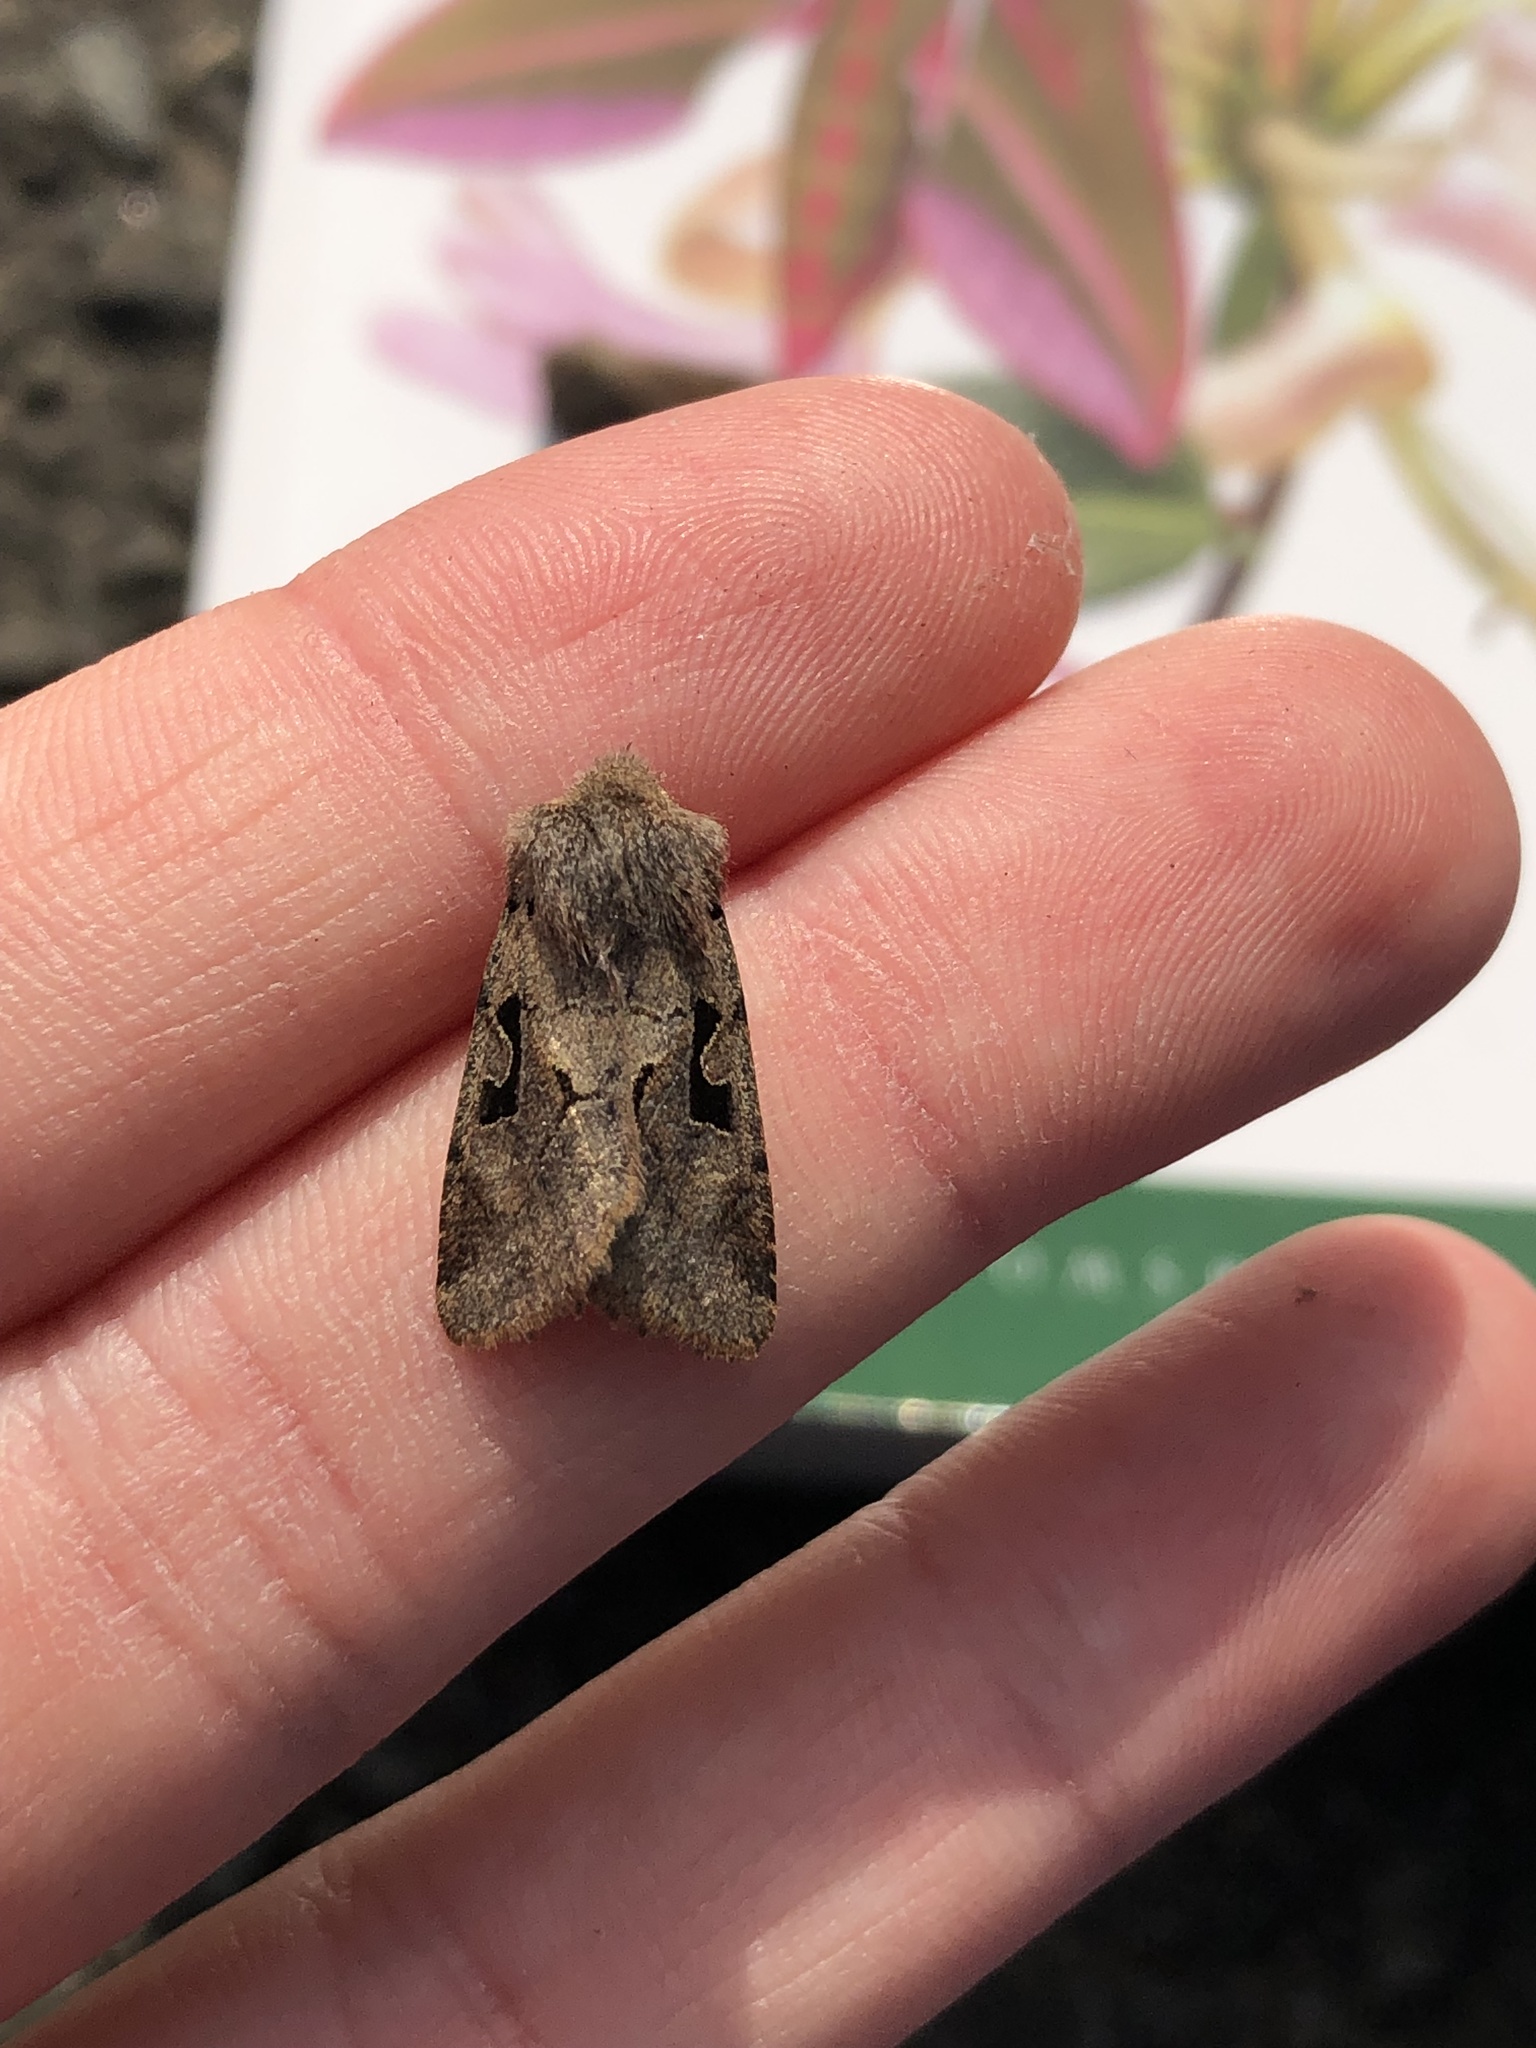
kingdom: Animalia
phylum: Arthropoda
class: Insecta
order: Lepidoptera
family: Noctuidae
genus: Orthosia
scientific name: Orthosia gothica
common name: Hebrew character
